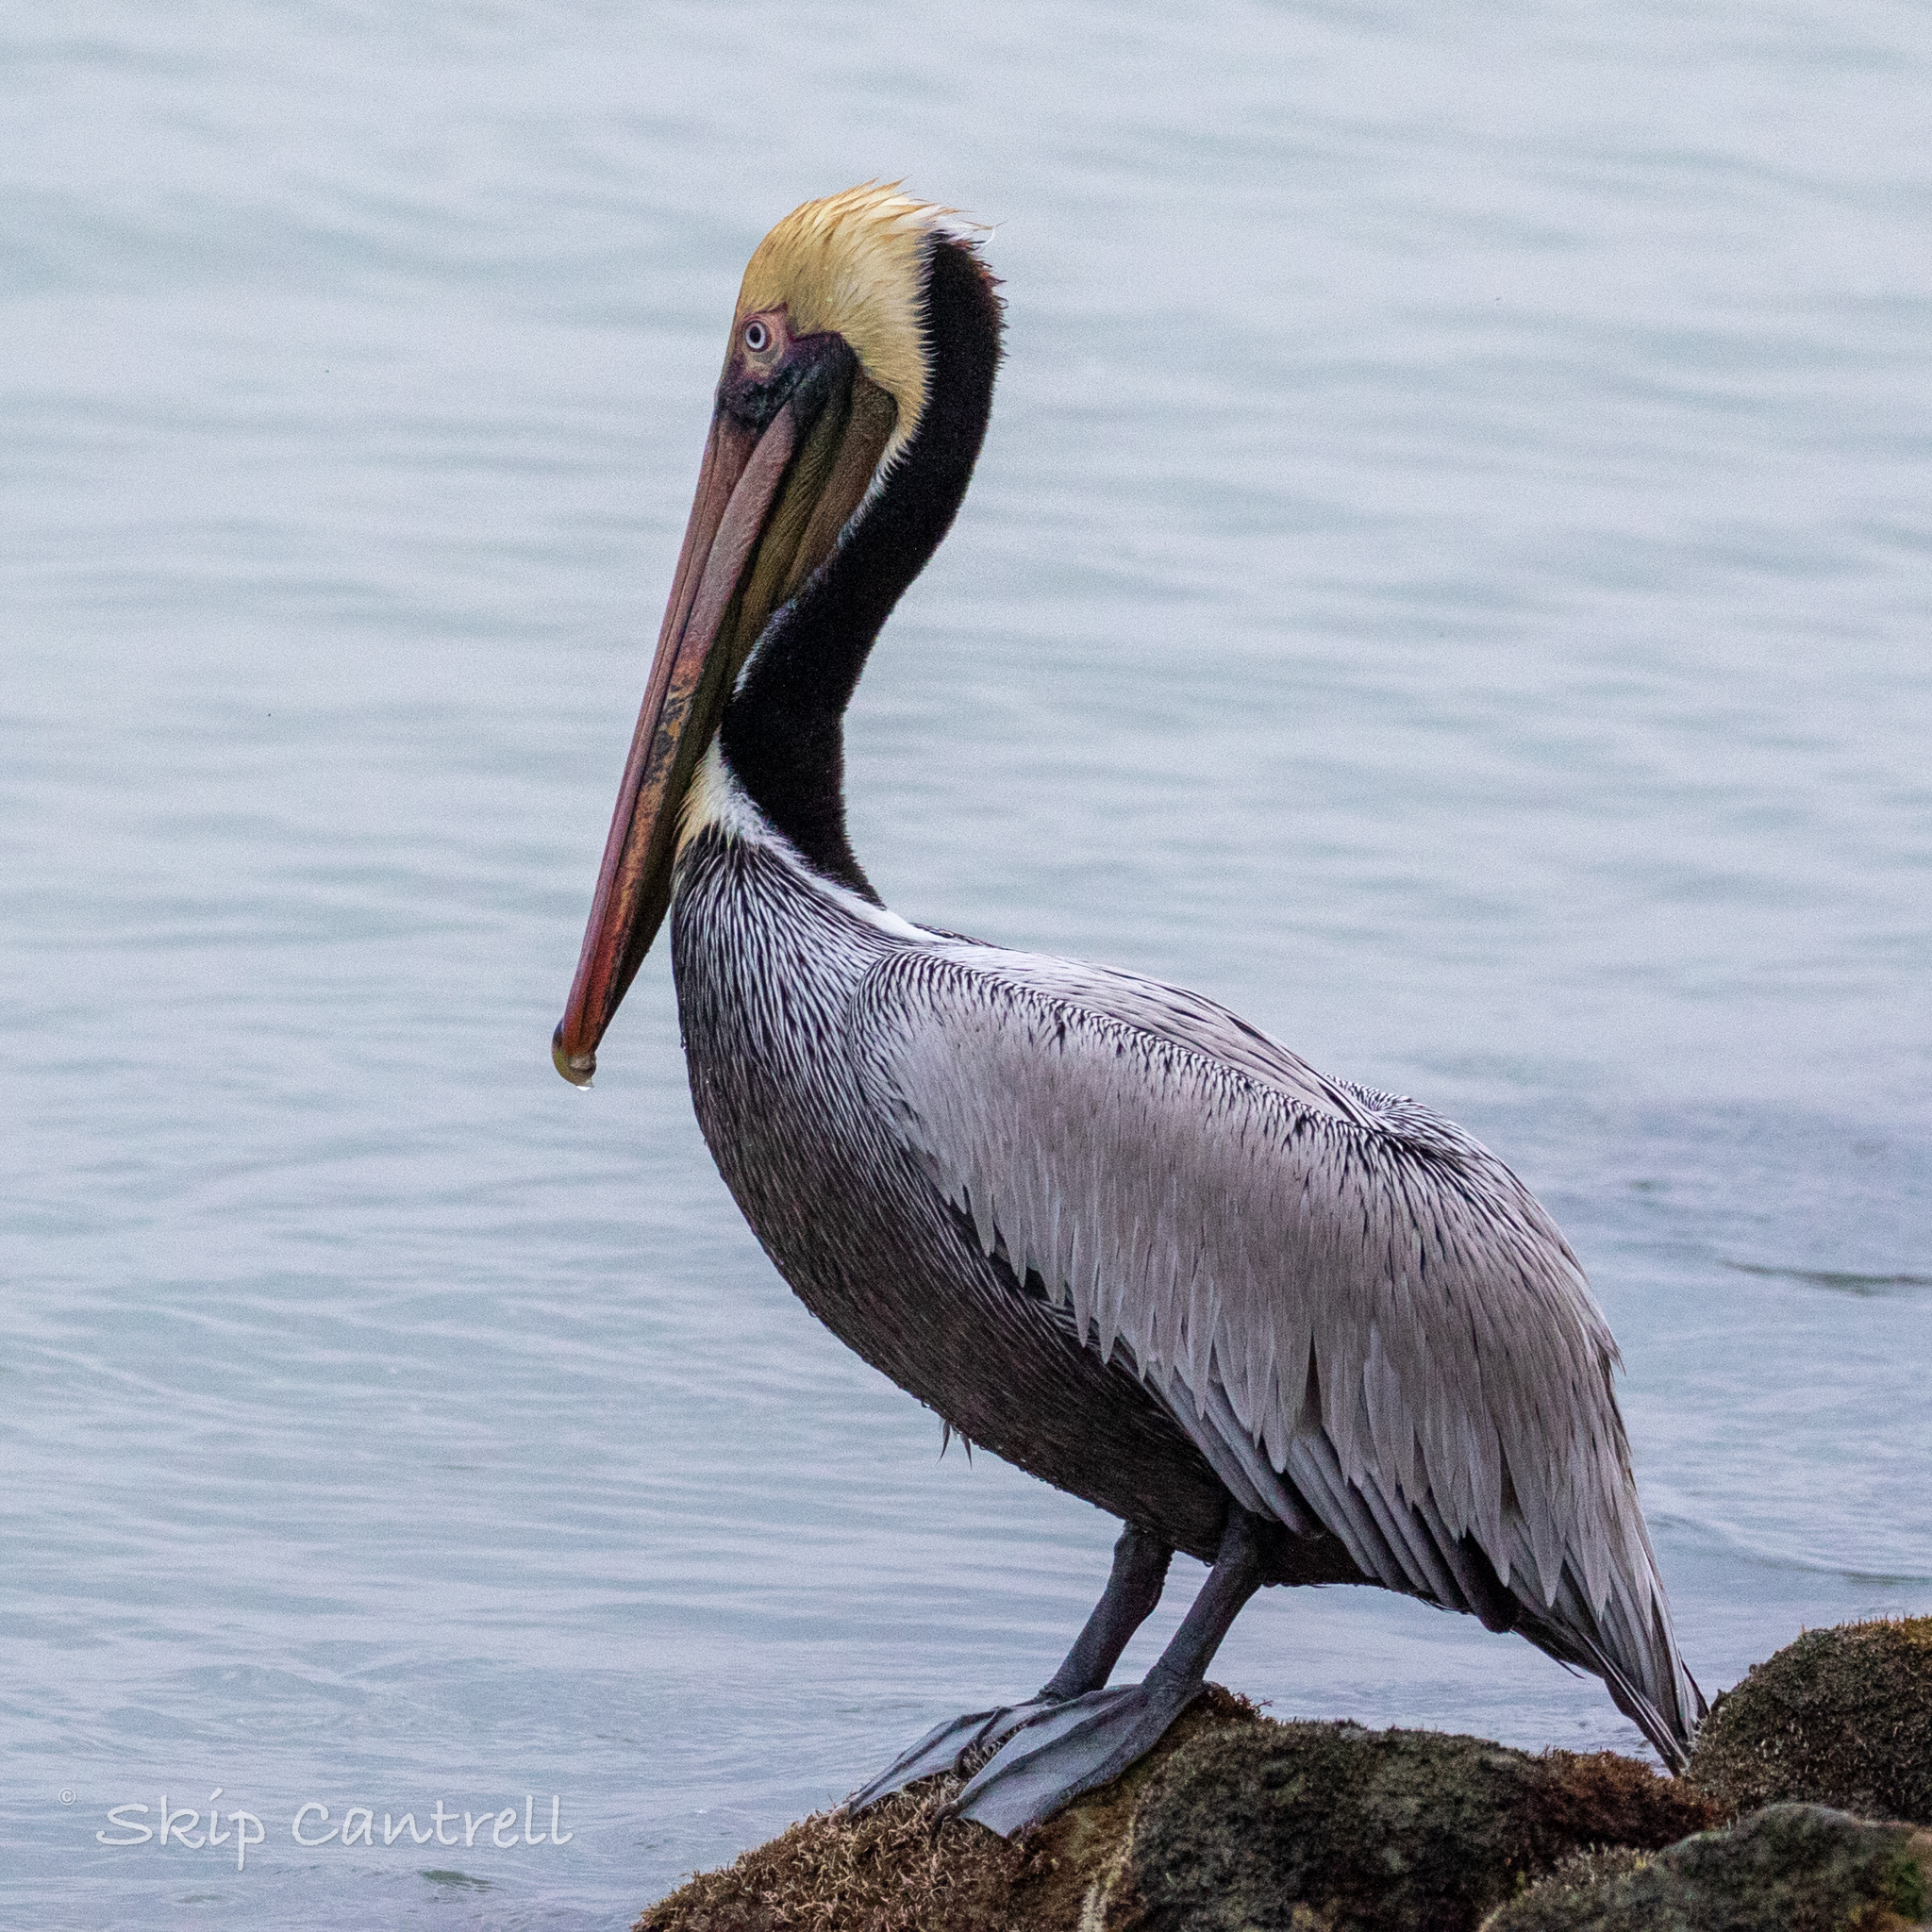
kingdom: Animalia
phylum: Chordata
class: Aves
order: Pelecaniformes
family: Pelecanidae
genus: Pelecanus
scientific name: Pelecanus occidentalis
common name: Brown pelican
